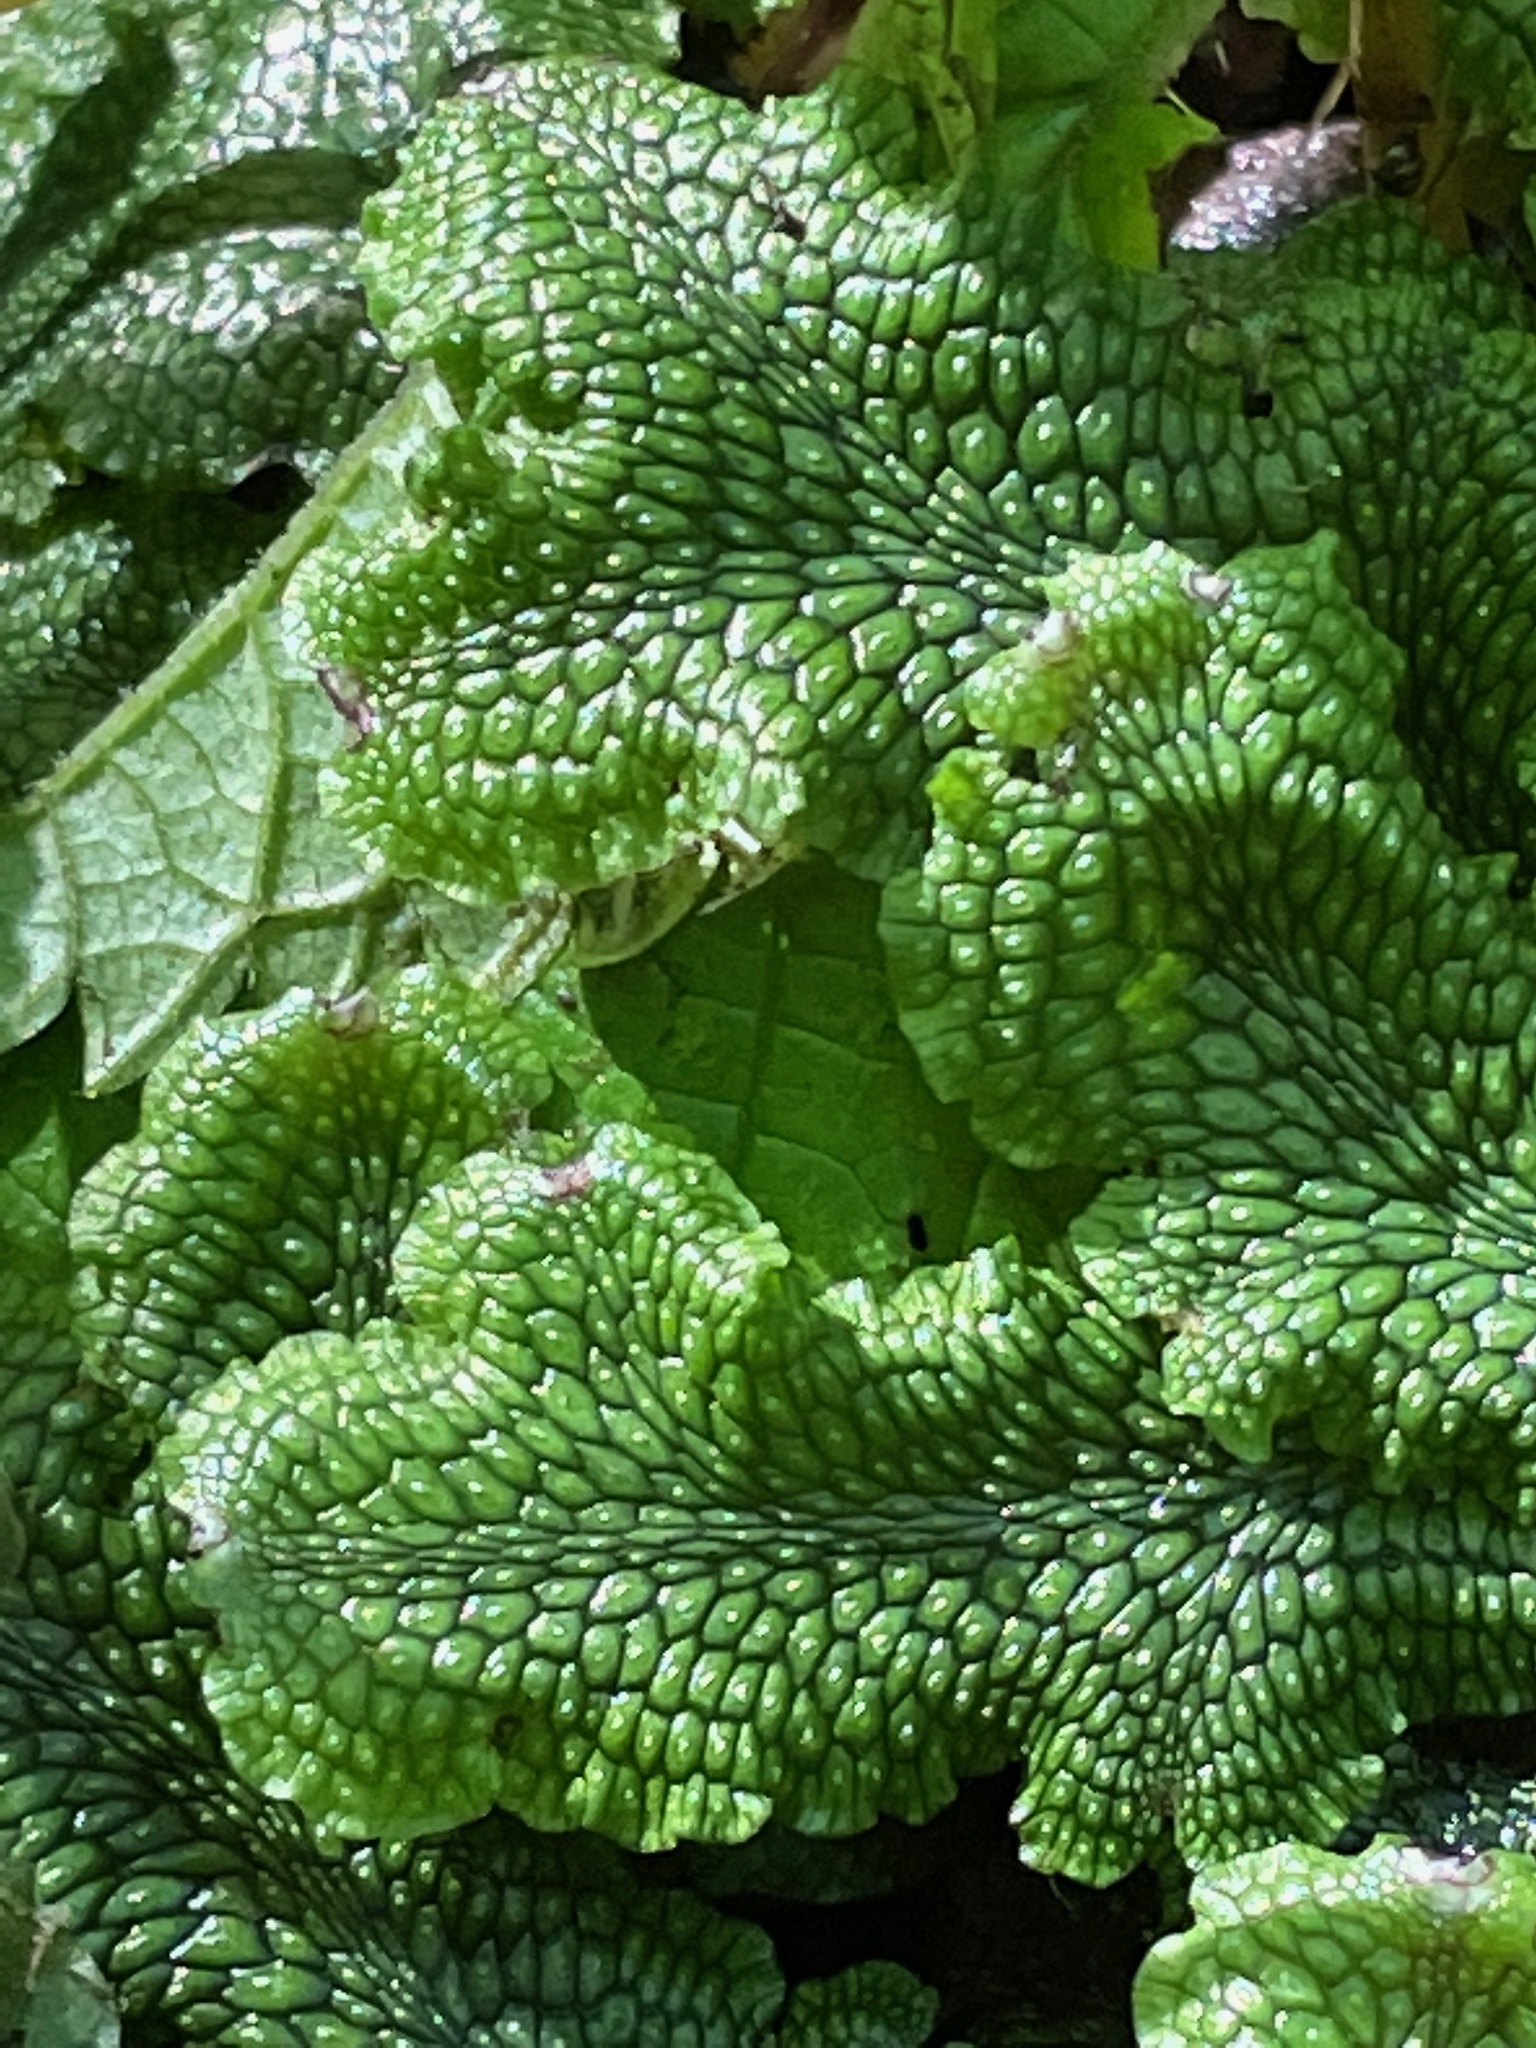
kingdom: Plantae
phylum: Marchantiophyta
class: Marchantiopsida
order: Marchantiales
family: Conocephalaceae
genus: Conocephalum
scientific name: Conocephalum salebrosum
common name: Cat-tongue liverwort
